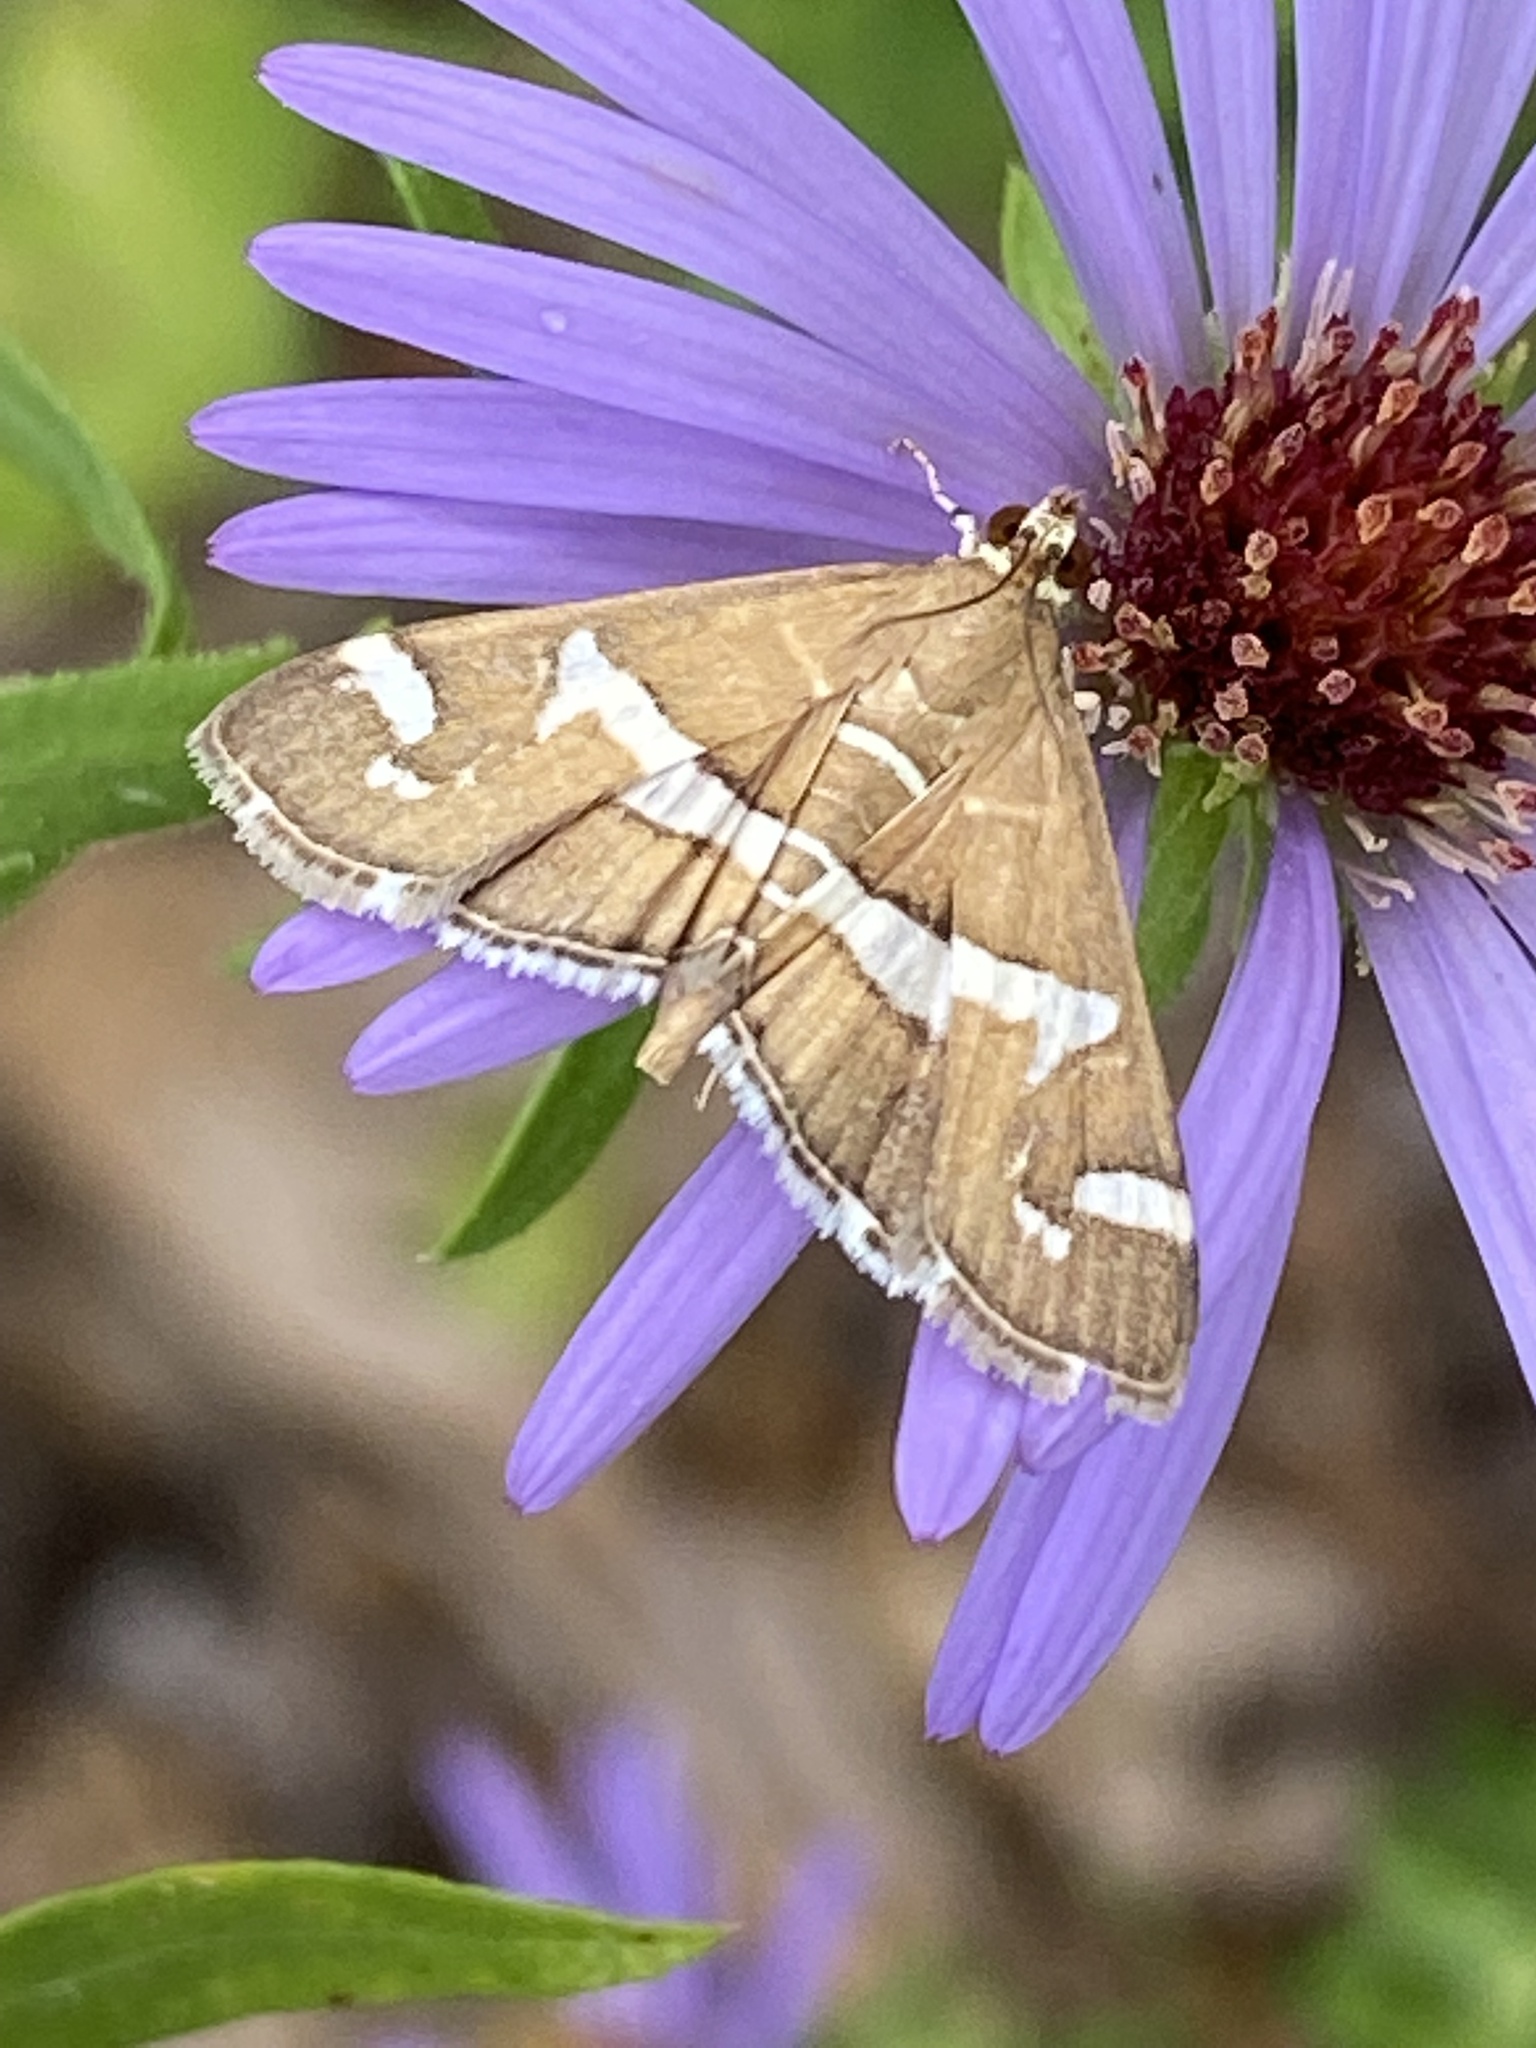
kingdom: Animalia
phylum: Arthropoda
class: Insecta
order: Lepidoptera
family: Crambidae
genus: Spoladea
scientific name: Spoladea recurvalis
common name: Beet webworm moth
